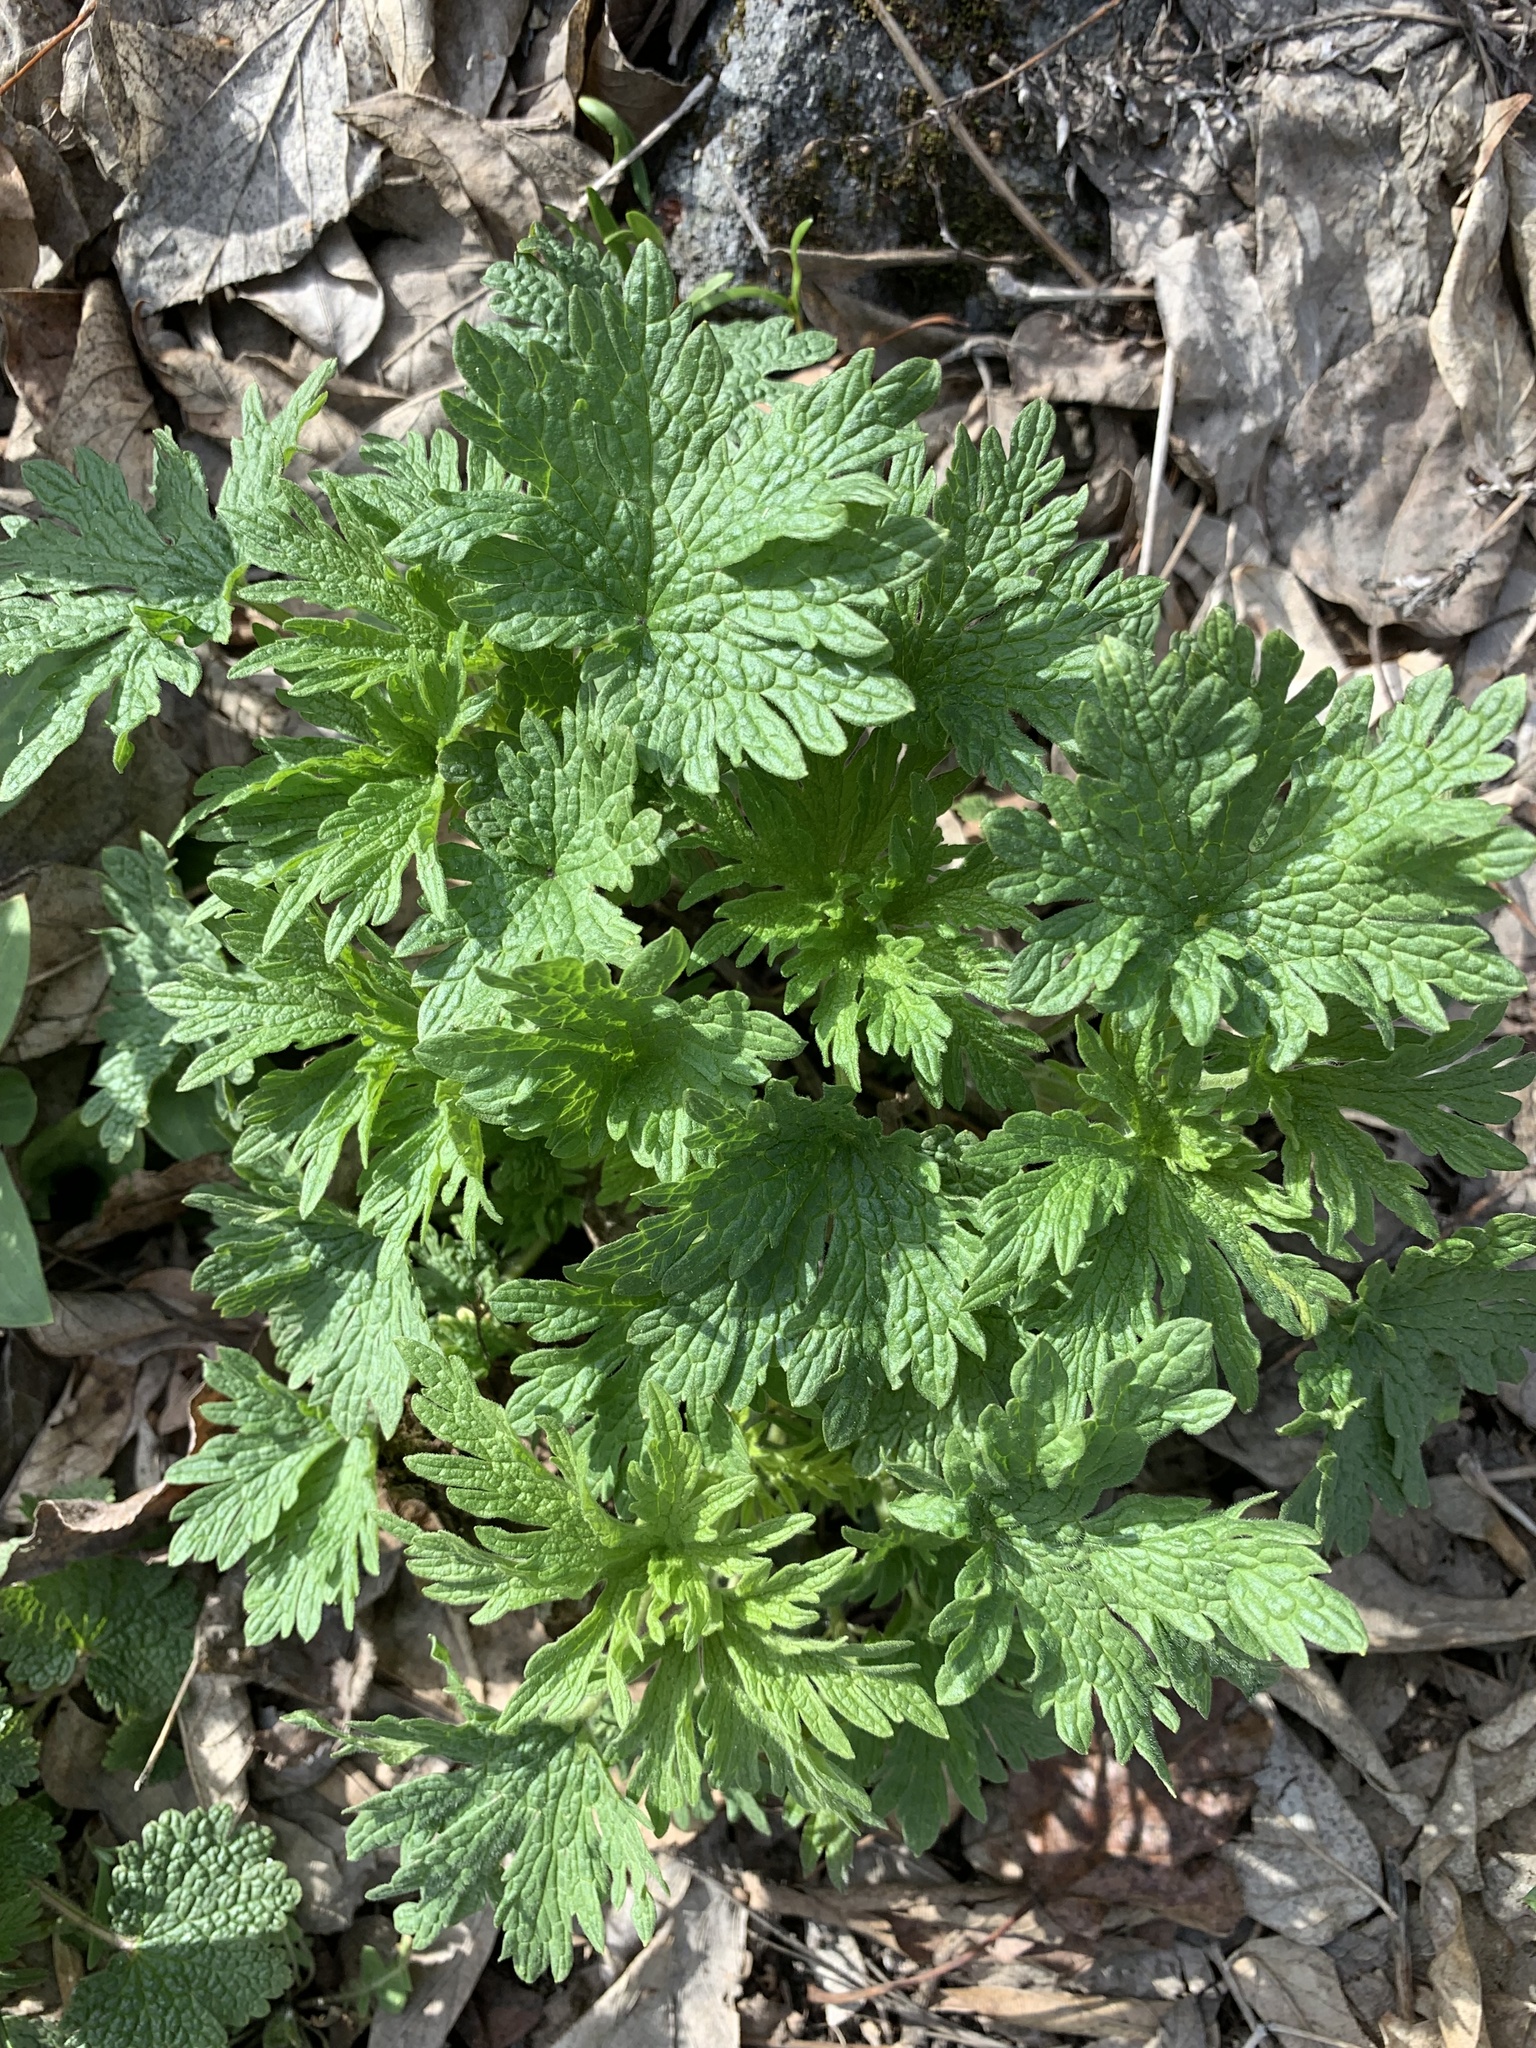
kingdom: Plantae
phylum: Tracheophyta
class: Magnoliopsida
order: Lamiales
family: Lamiaceae
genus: Leonurus
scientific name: Leonurus quinquelobatus
